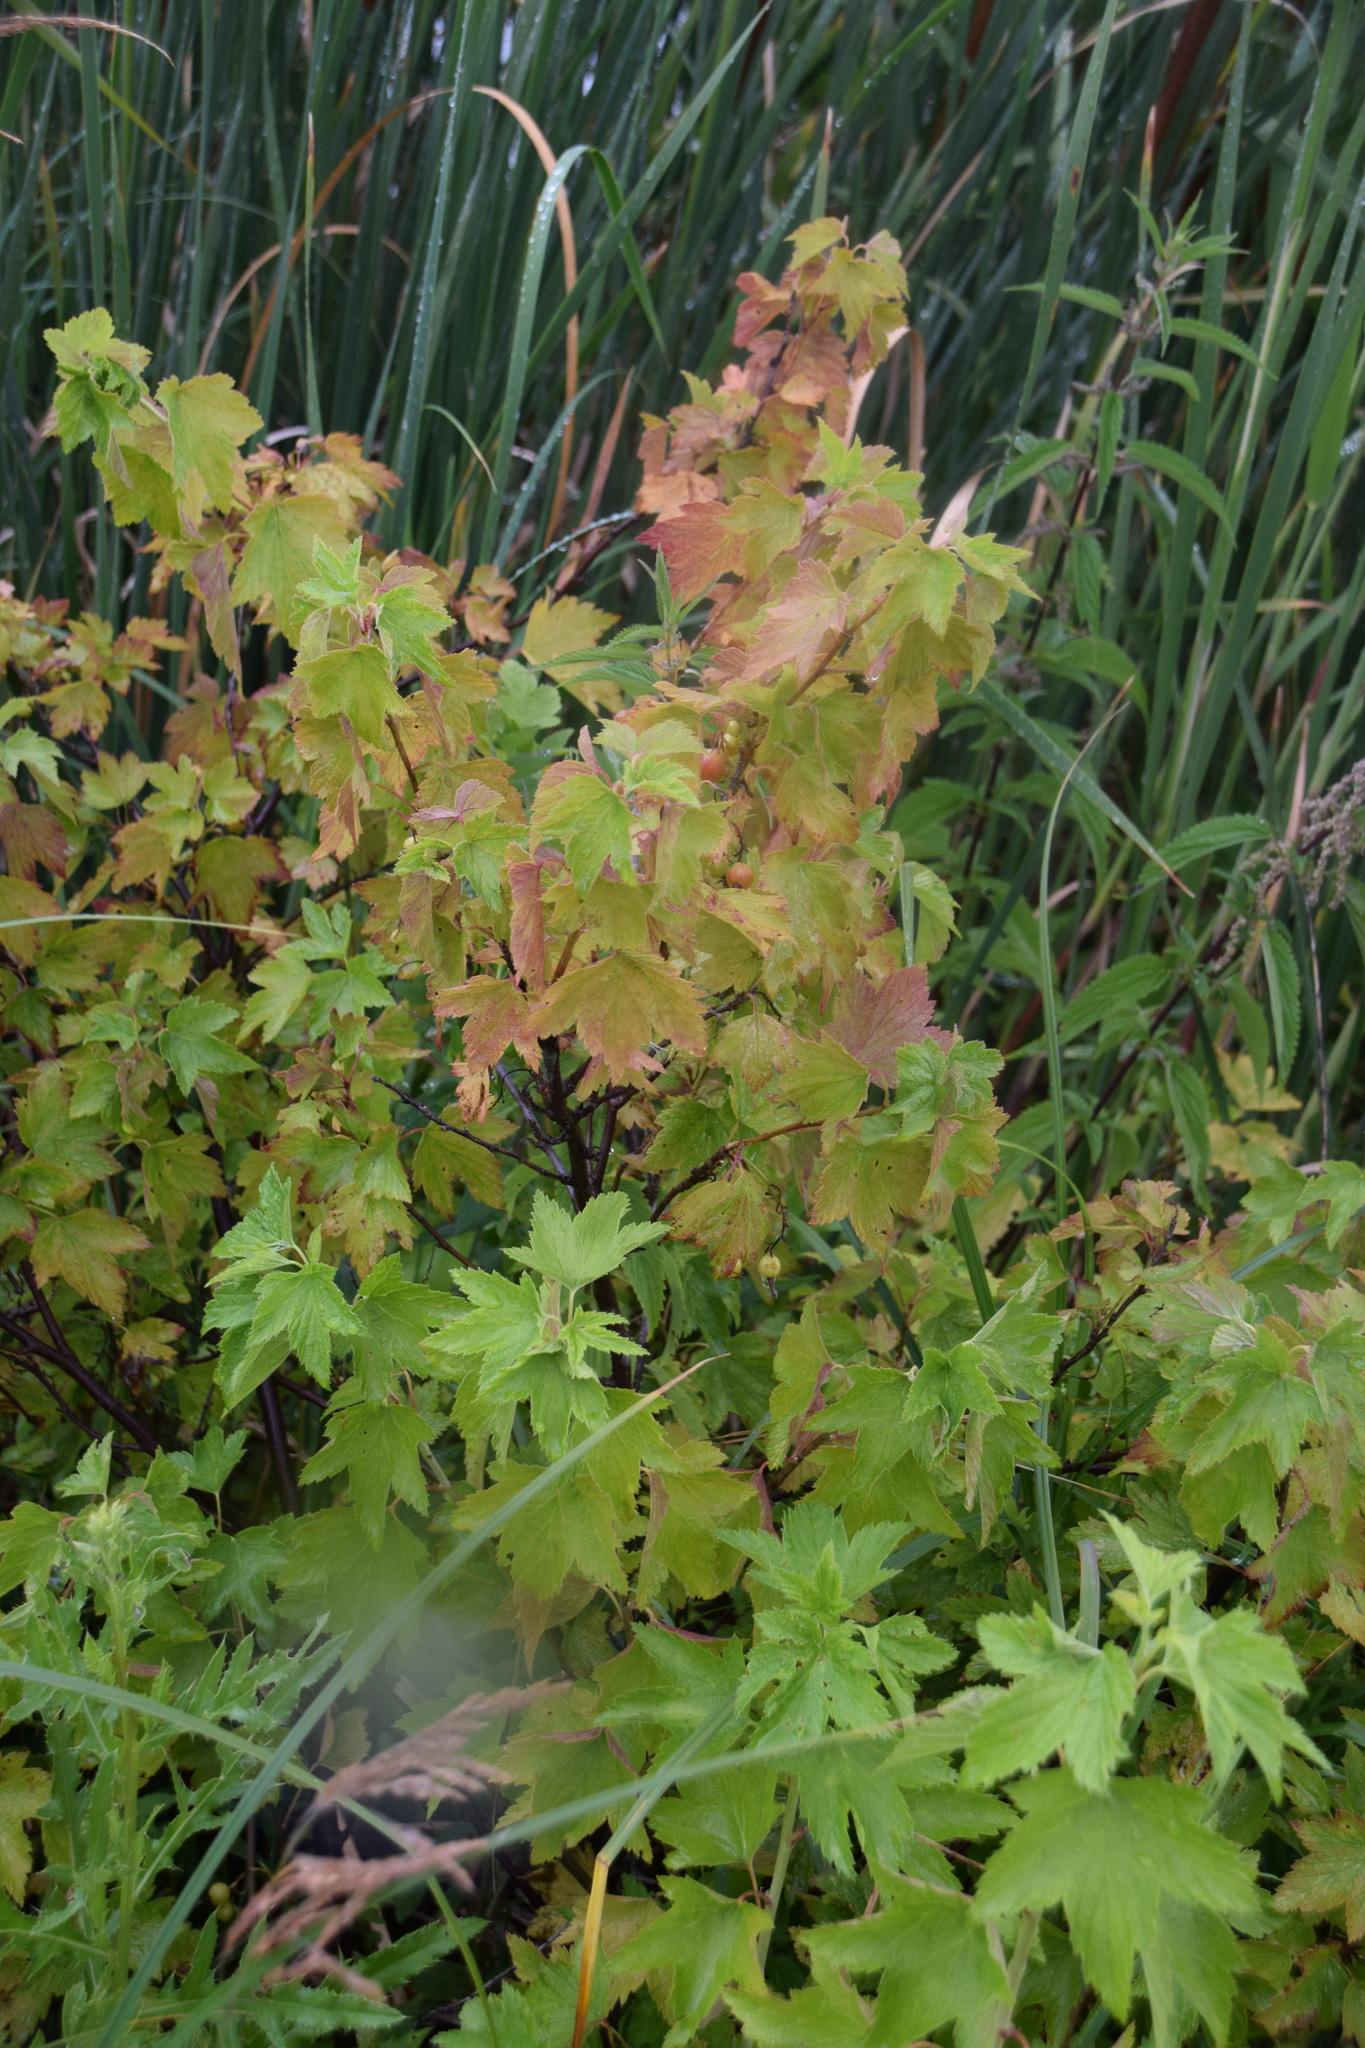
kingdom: Plantae
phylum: Tracheophyta
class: Magnoliopsida
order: Saxifragales
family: Grossulariaceae
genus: Ribes
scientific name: Ribes americanum
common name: American black currant
